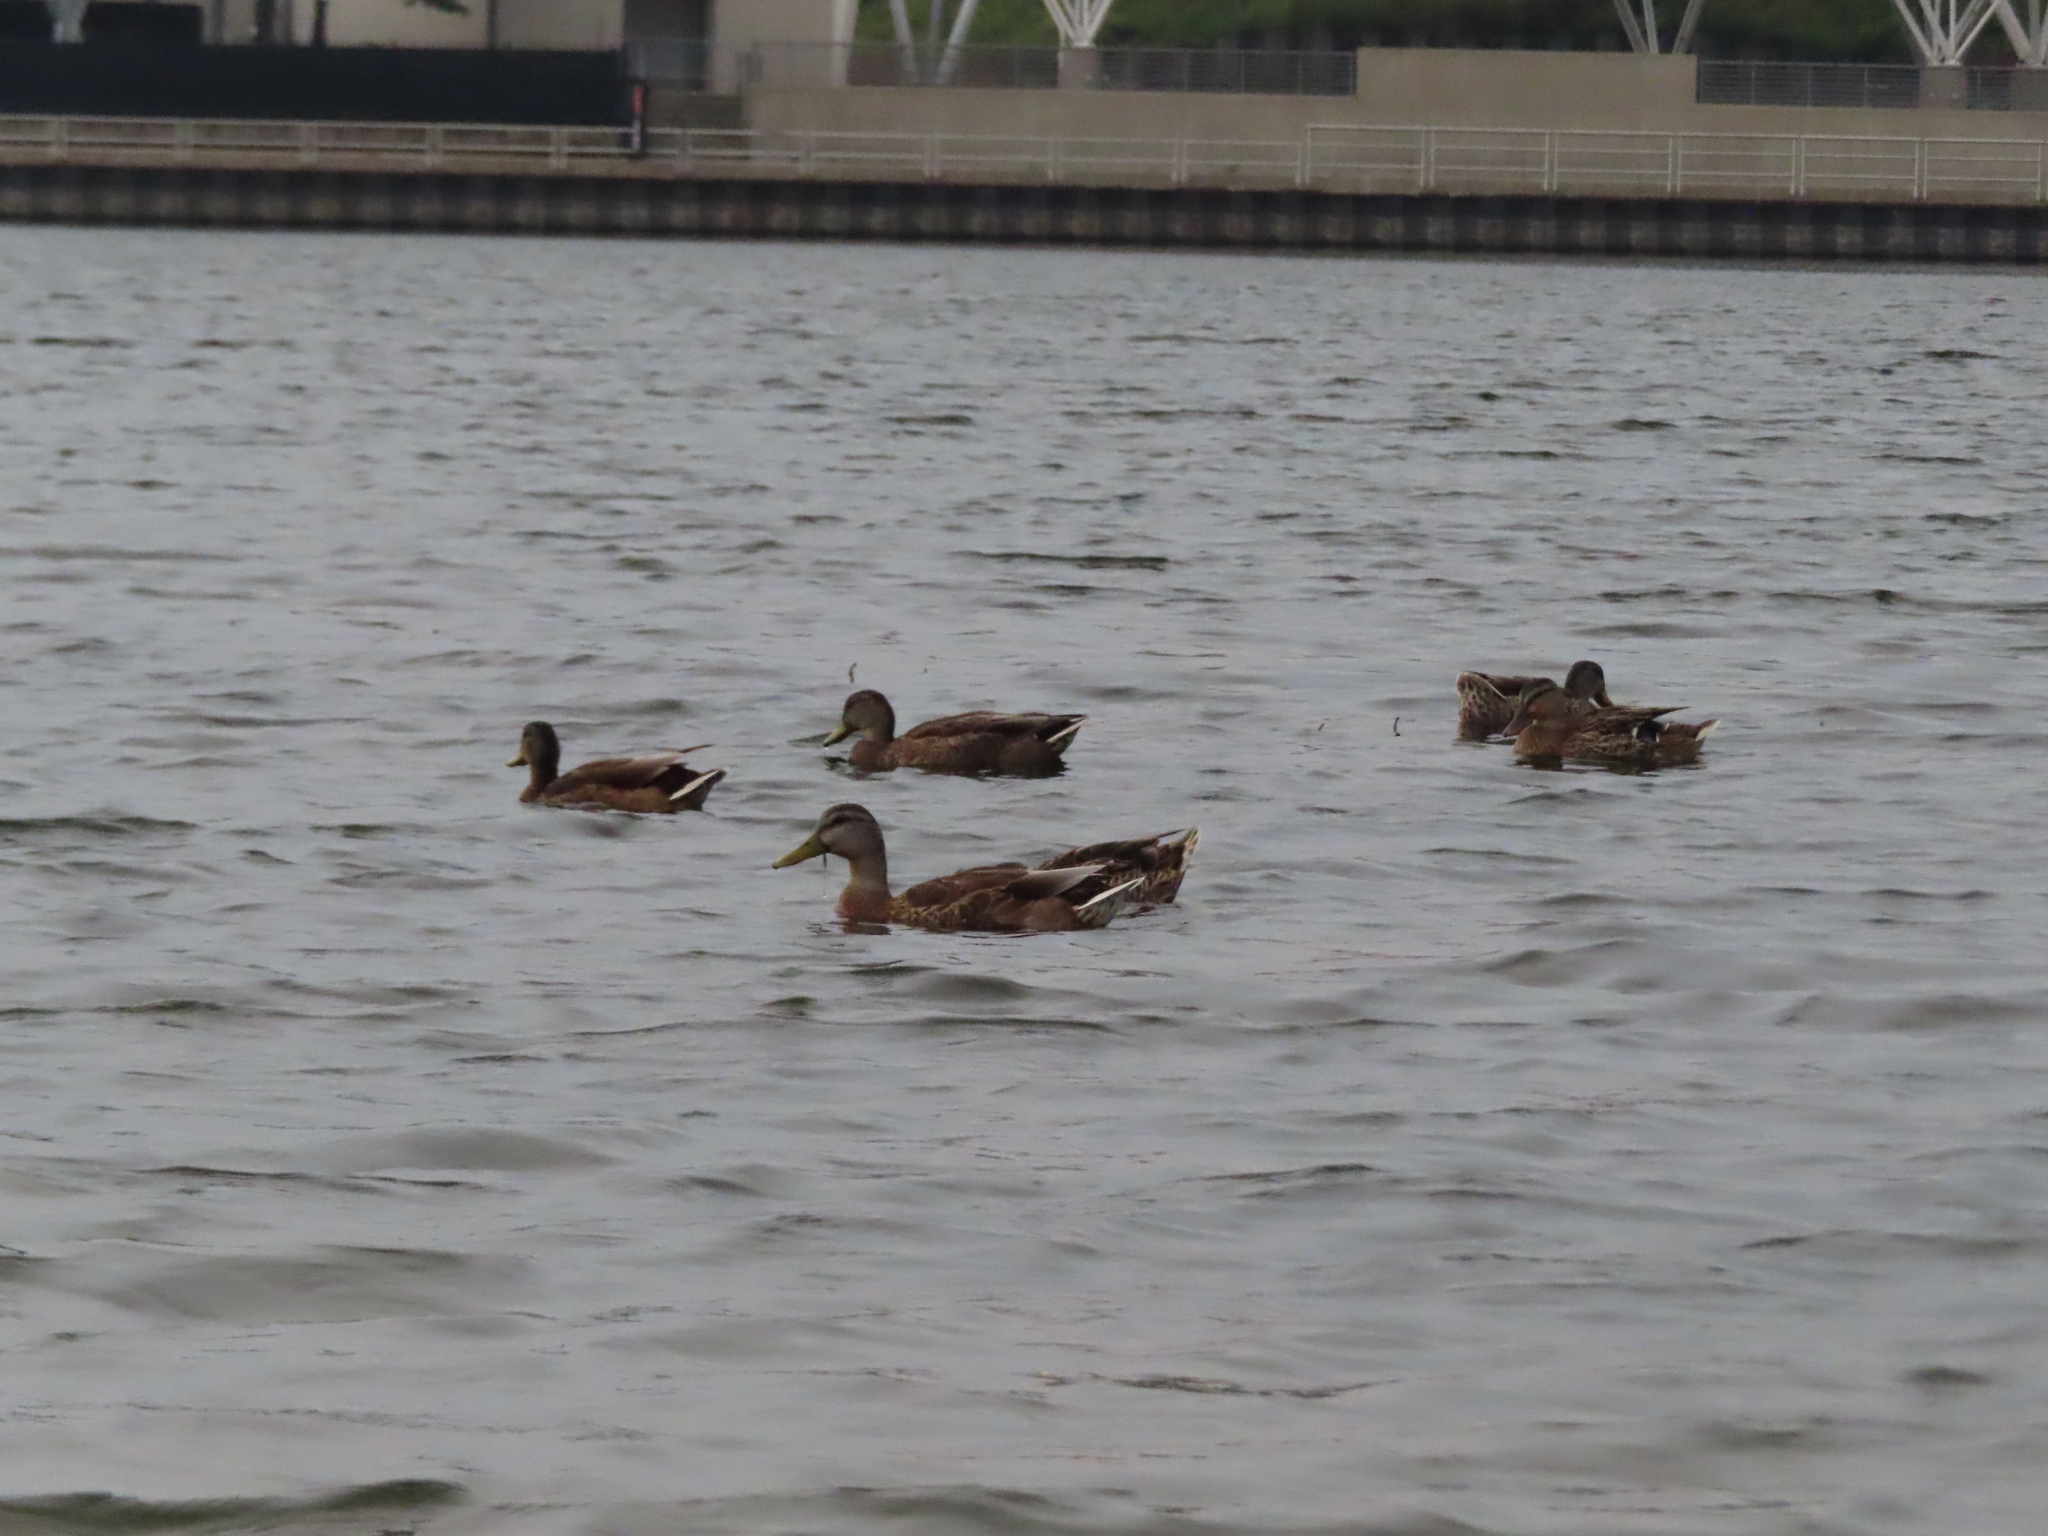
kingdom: Animalia
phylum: Chordata
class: Aves
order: Anseriformes
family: Anatidae
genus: Anas
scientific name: Anas platyrhynchos
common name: Mallard
